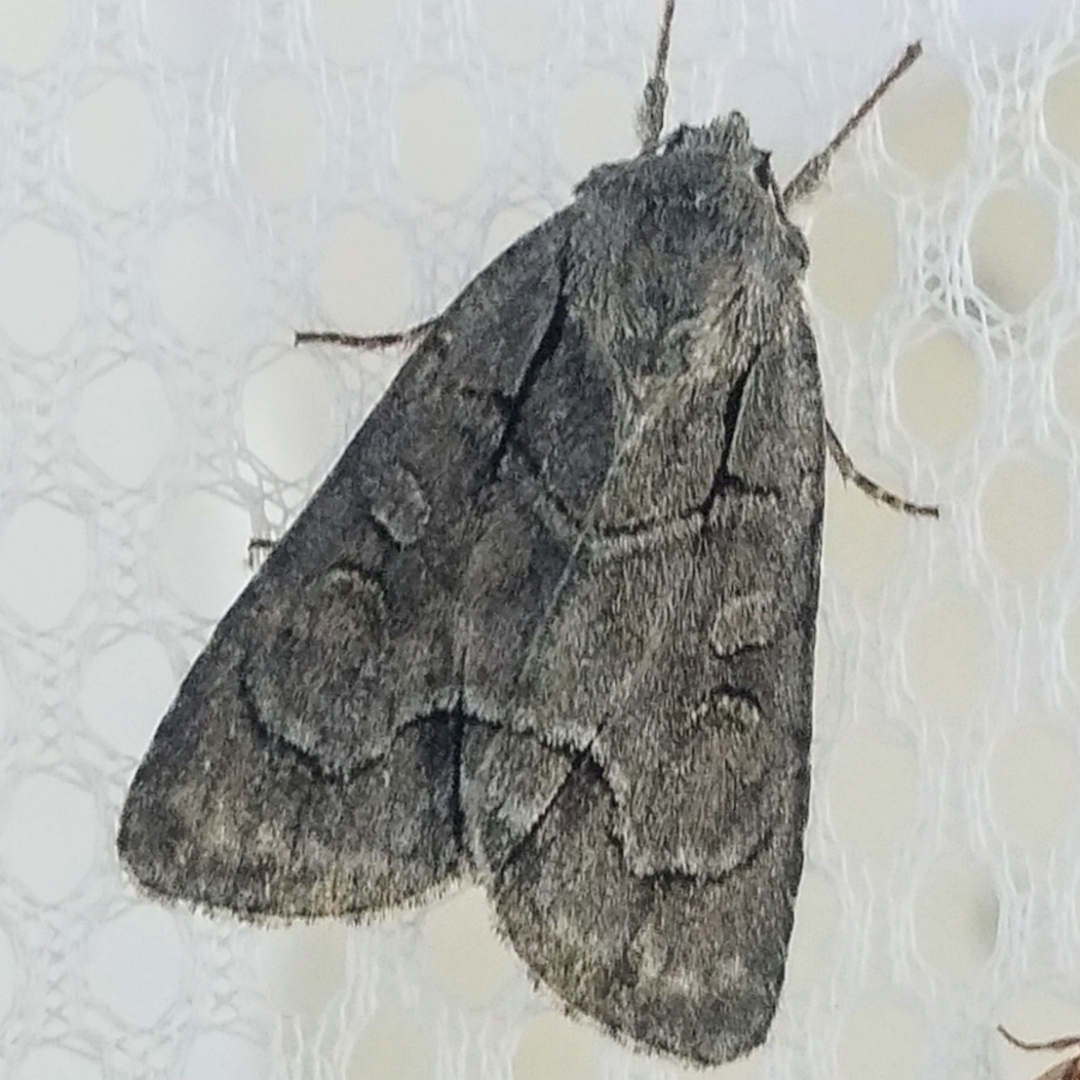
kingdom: Animalia
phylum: Arthropoda
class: Insecta
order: Lepidoptera
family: Noctuidae
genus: Acronicta
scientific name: Acronicta radcliffei
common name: Radcliffe's dagger
